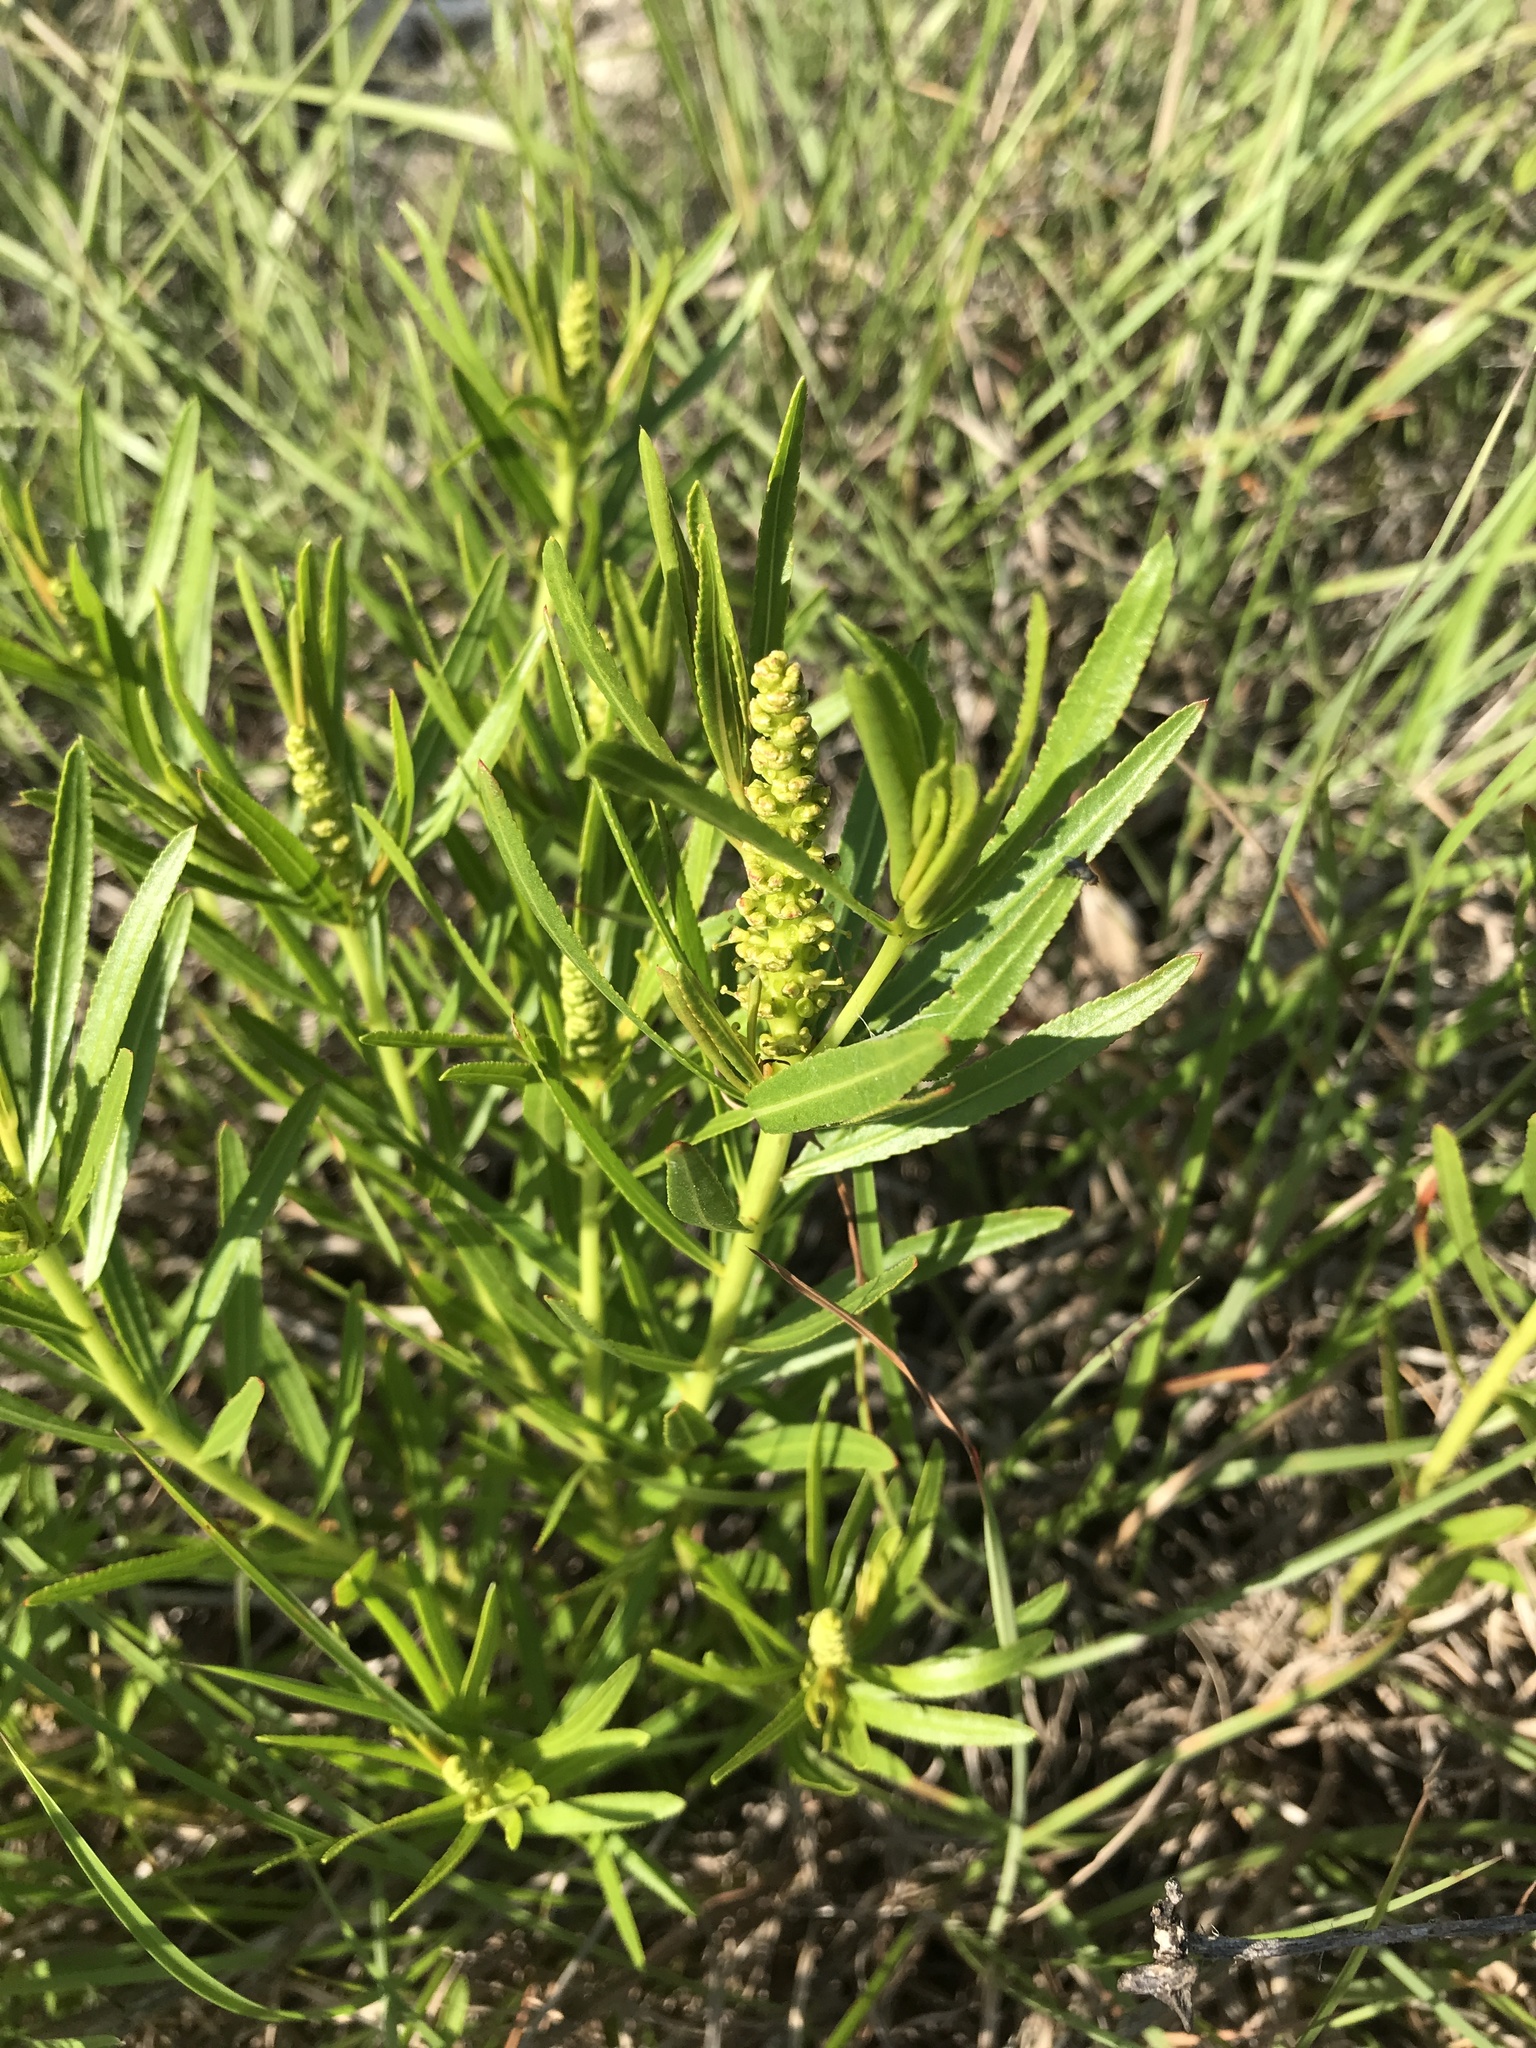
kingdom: Plantae
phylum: Tracheophyta
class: Magnoliopsida
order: Malpighiales
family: Euphorbiaceae
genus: Stillingia
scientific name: Stillingia texana
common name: Texas stillingia
